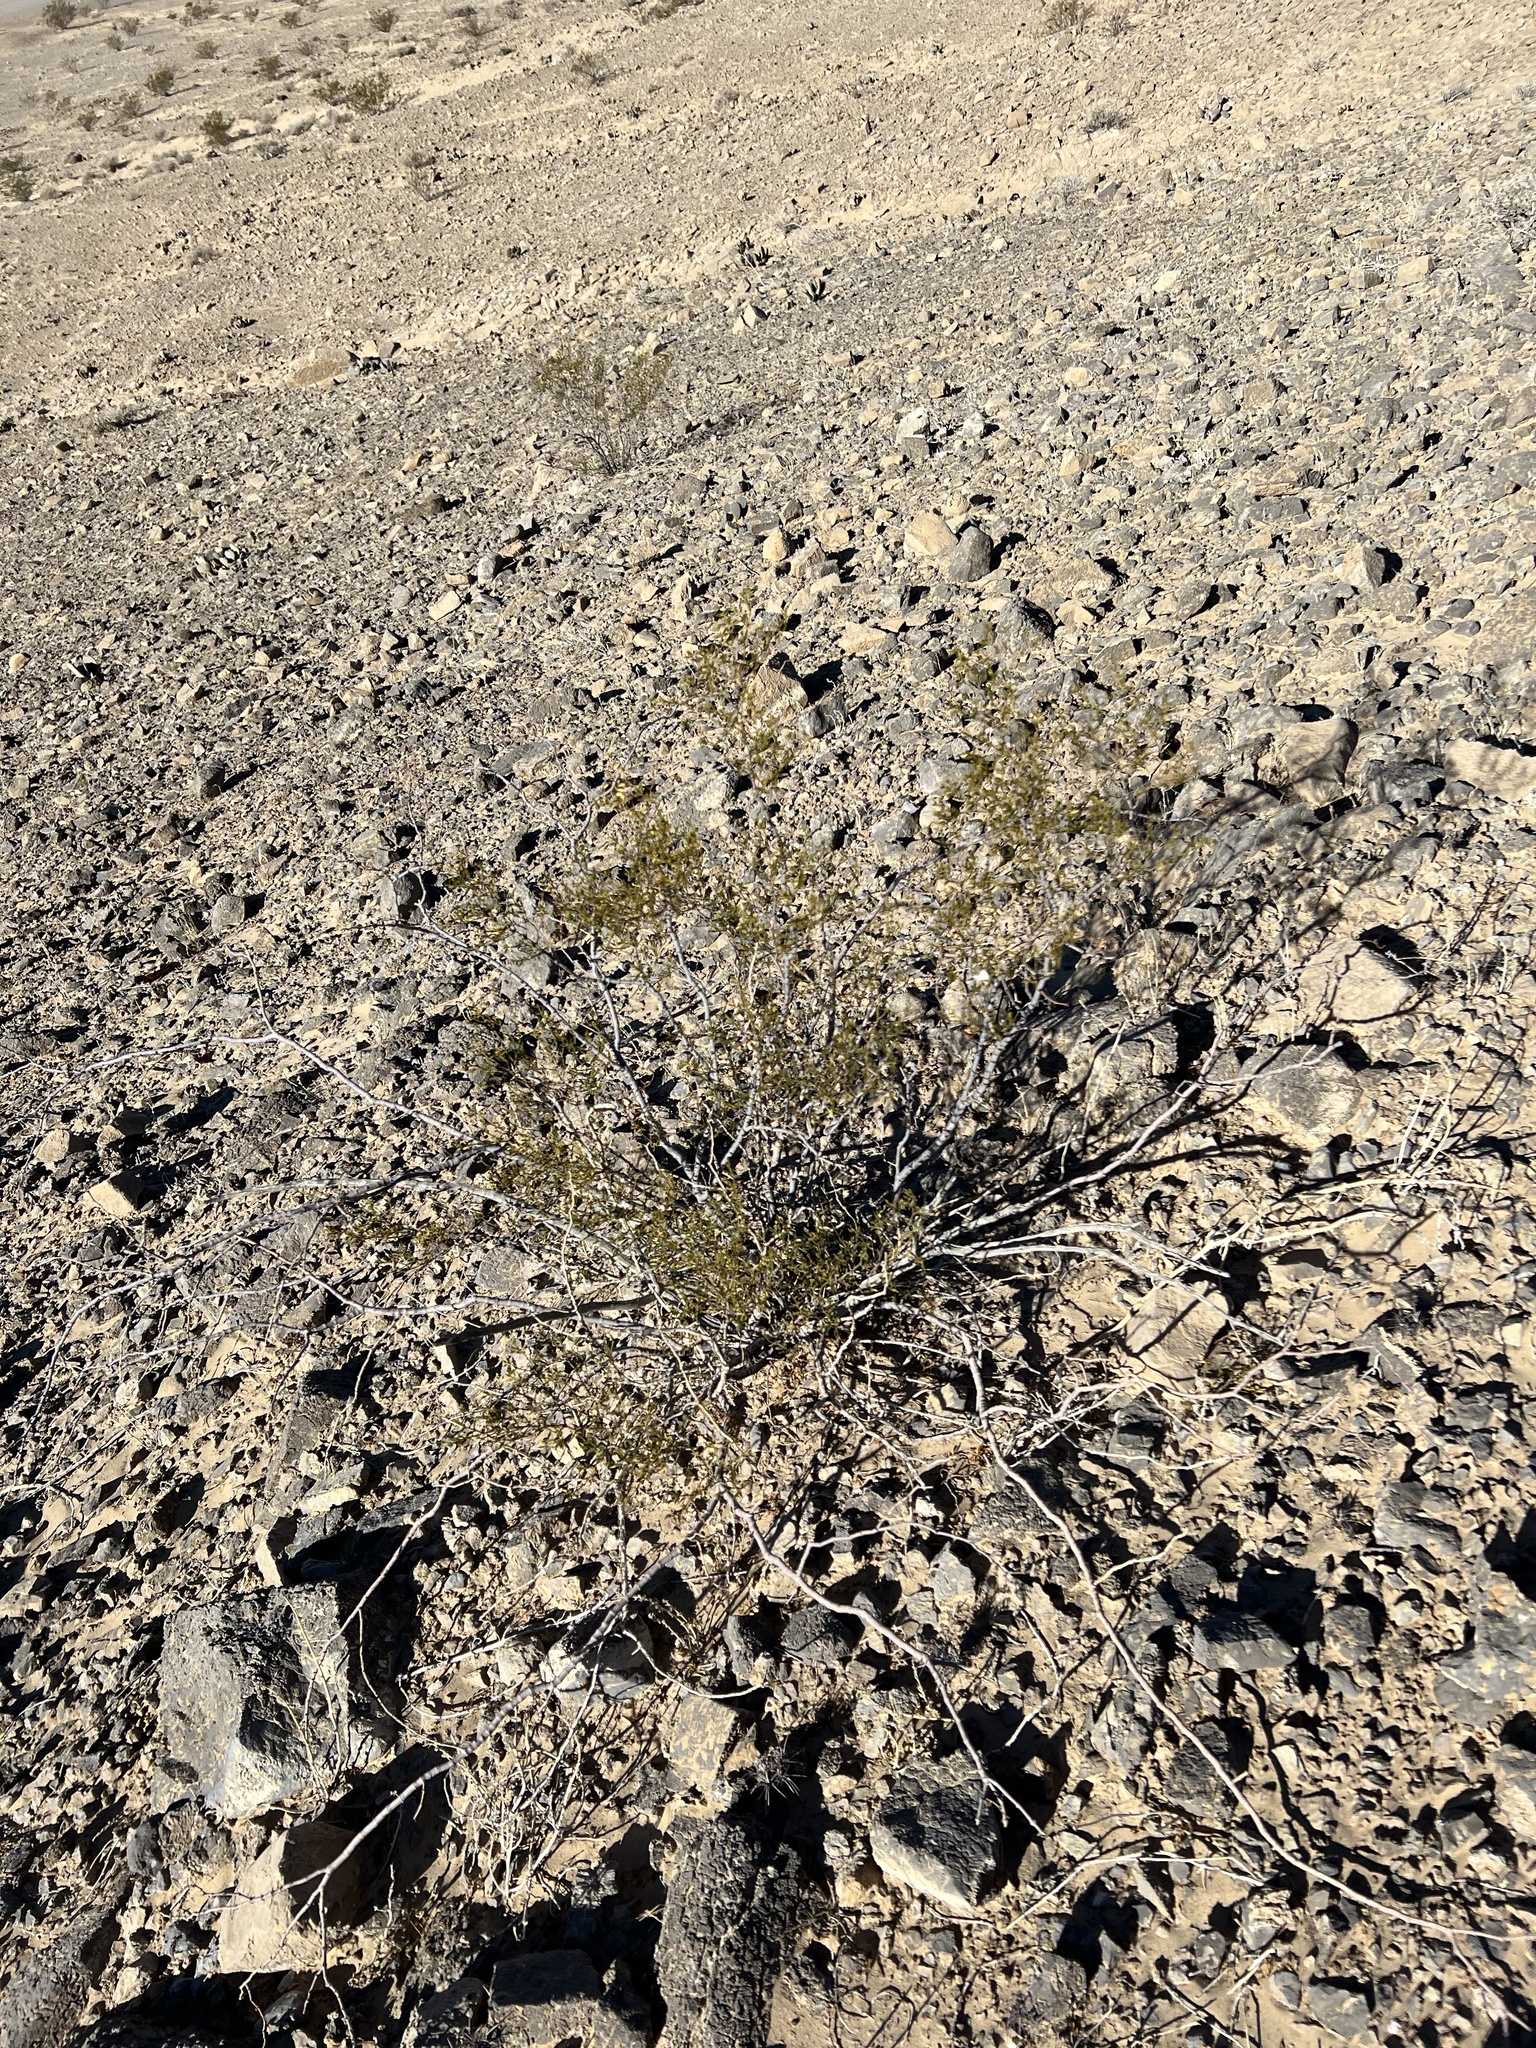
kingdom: Plantae
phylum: Tracheophyta
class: Magnoliopsida
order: Zygophyllales
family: Zygophyllaceae
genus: Larrea
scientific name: Larrea tridentata
